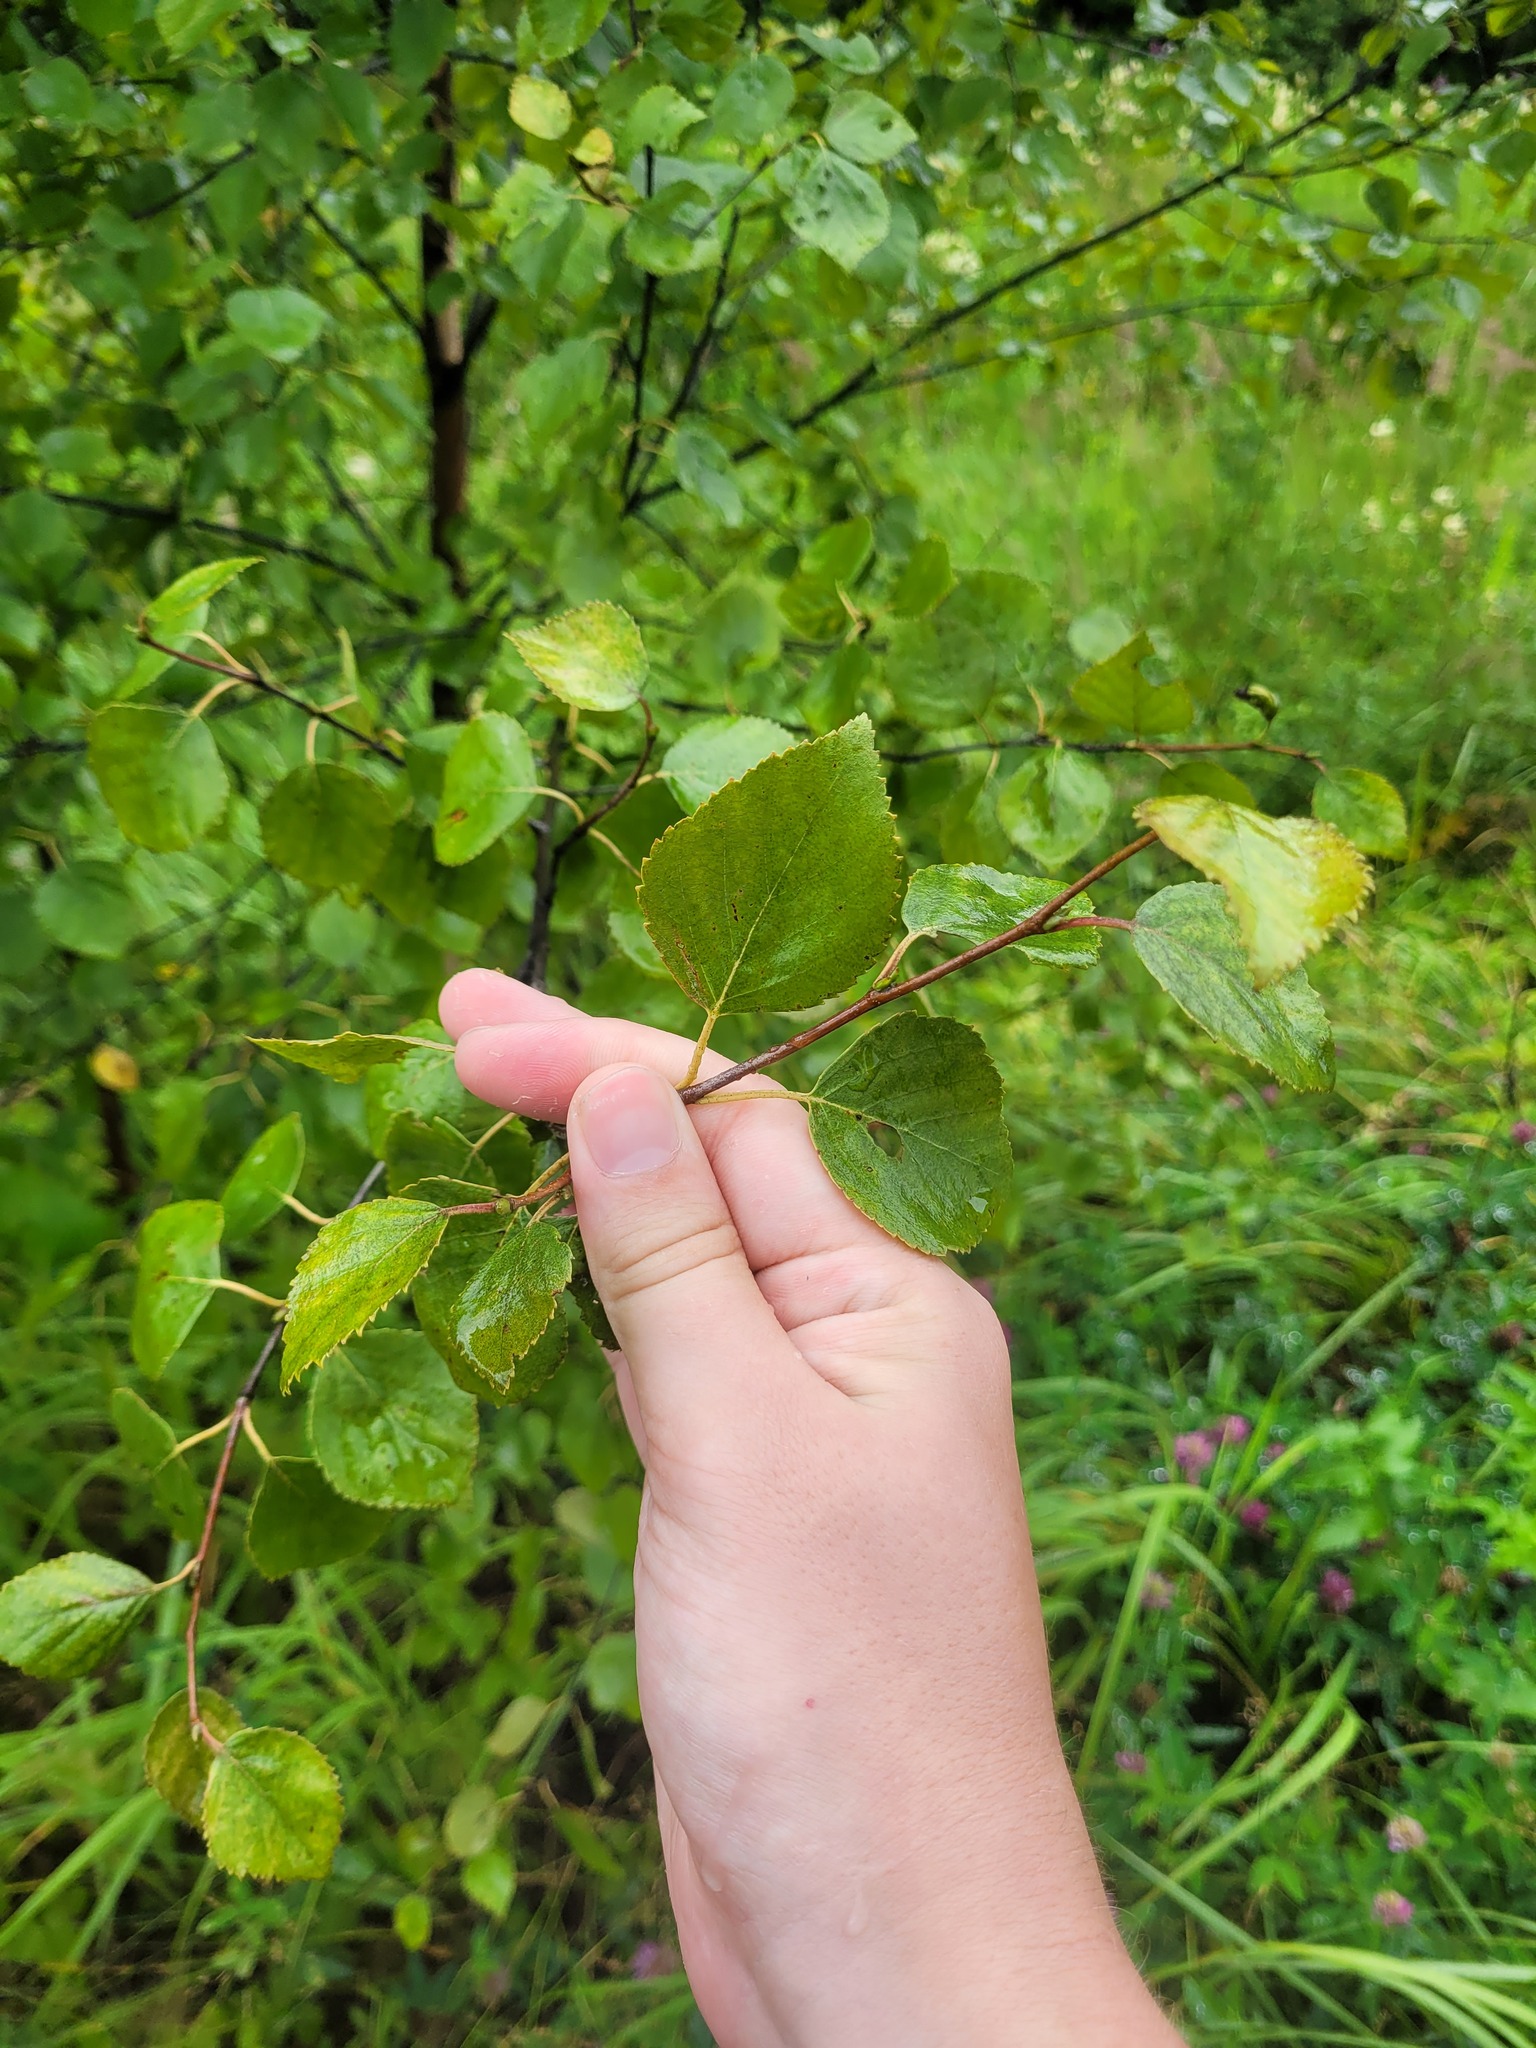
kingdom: Plantae
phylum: Tracheophyta
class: Magnoliopsida
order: Fagales
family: Betulaceae
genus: Betula
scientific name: Betula pendula
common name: Silver birch
